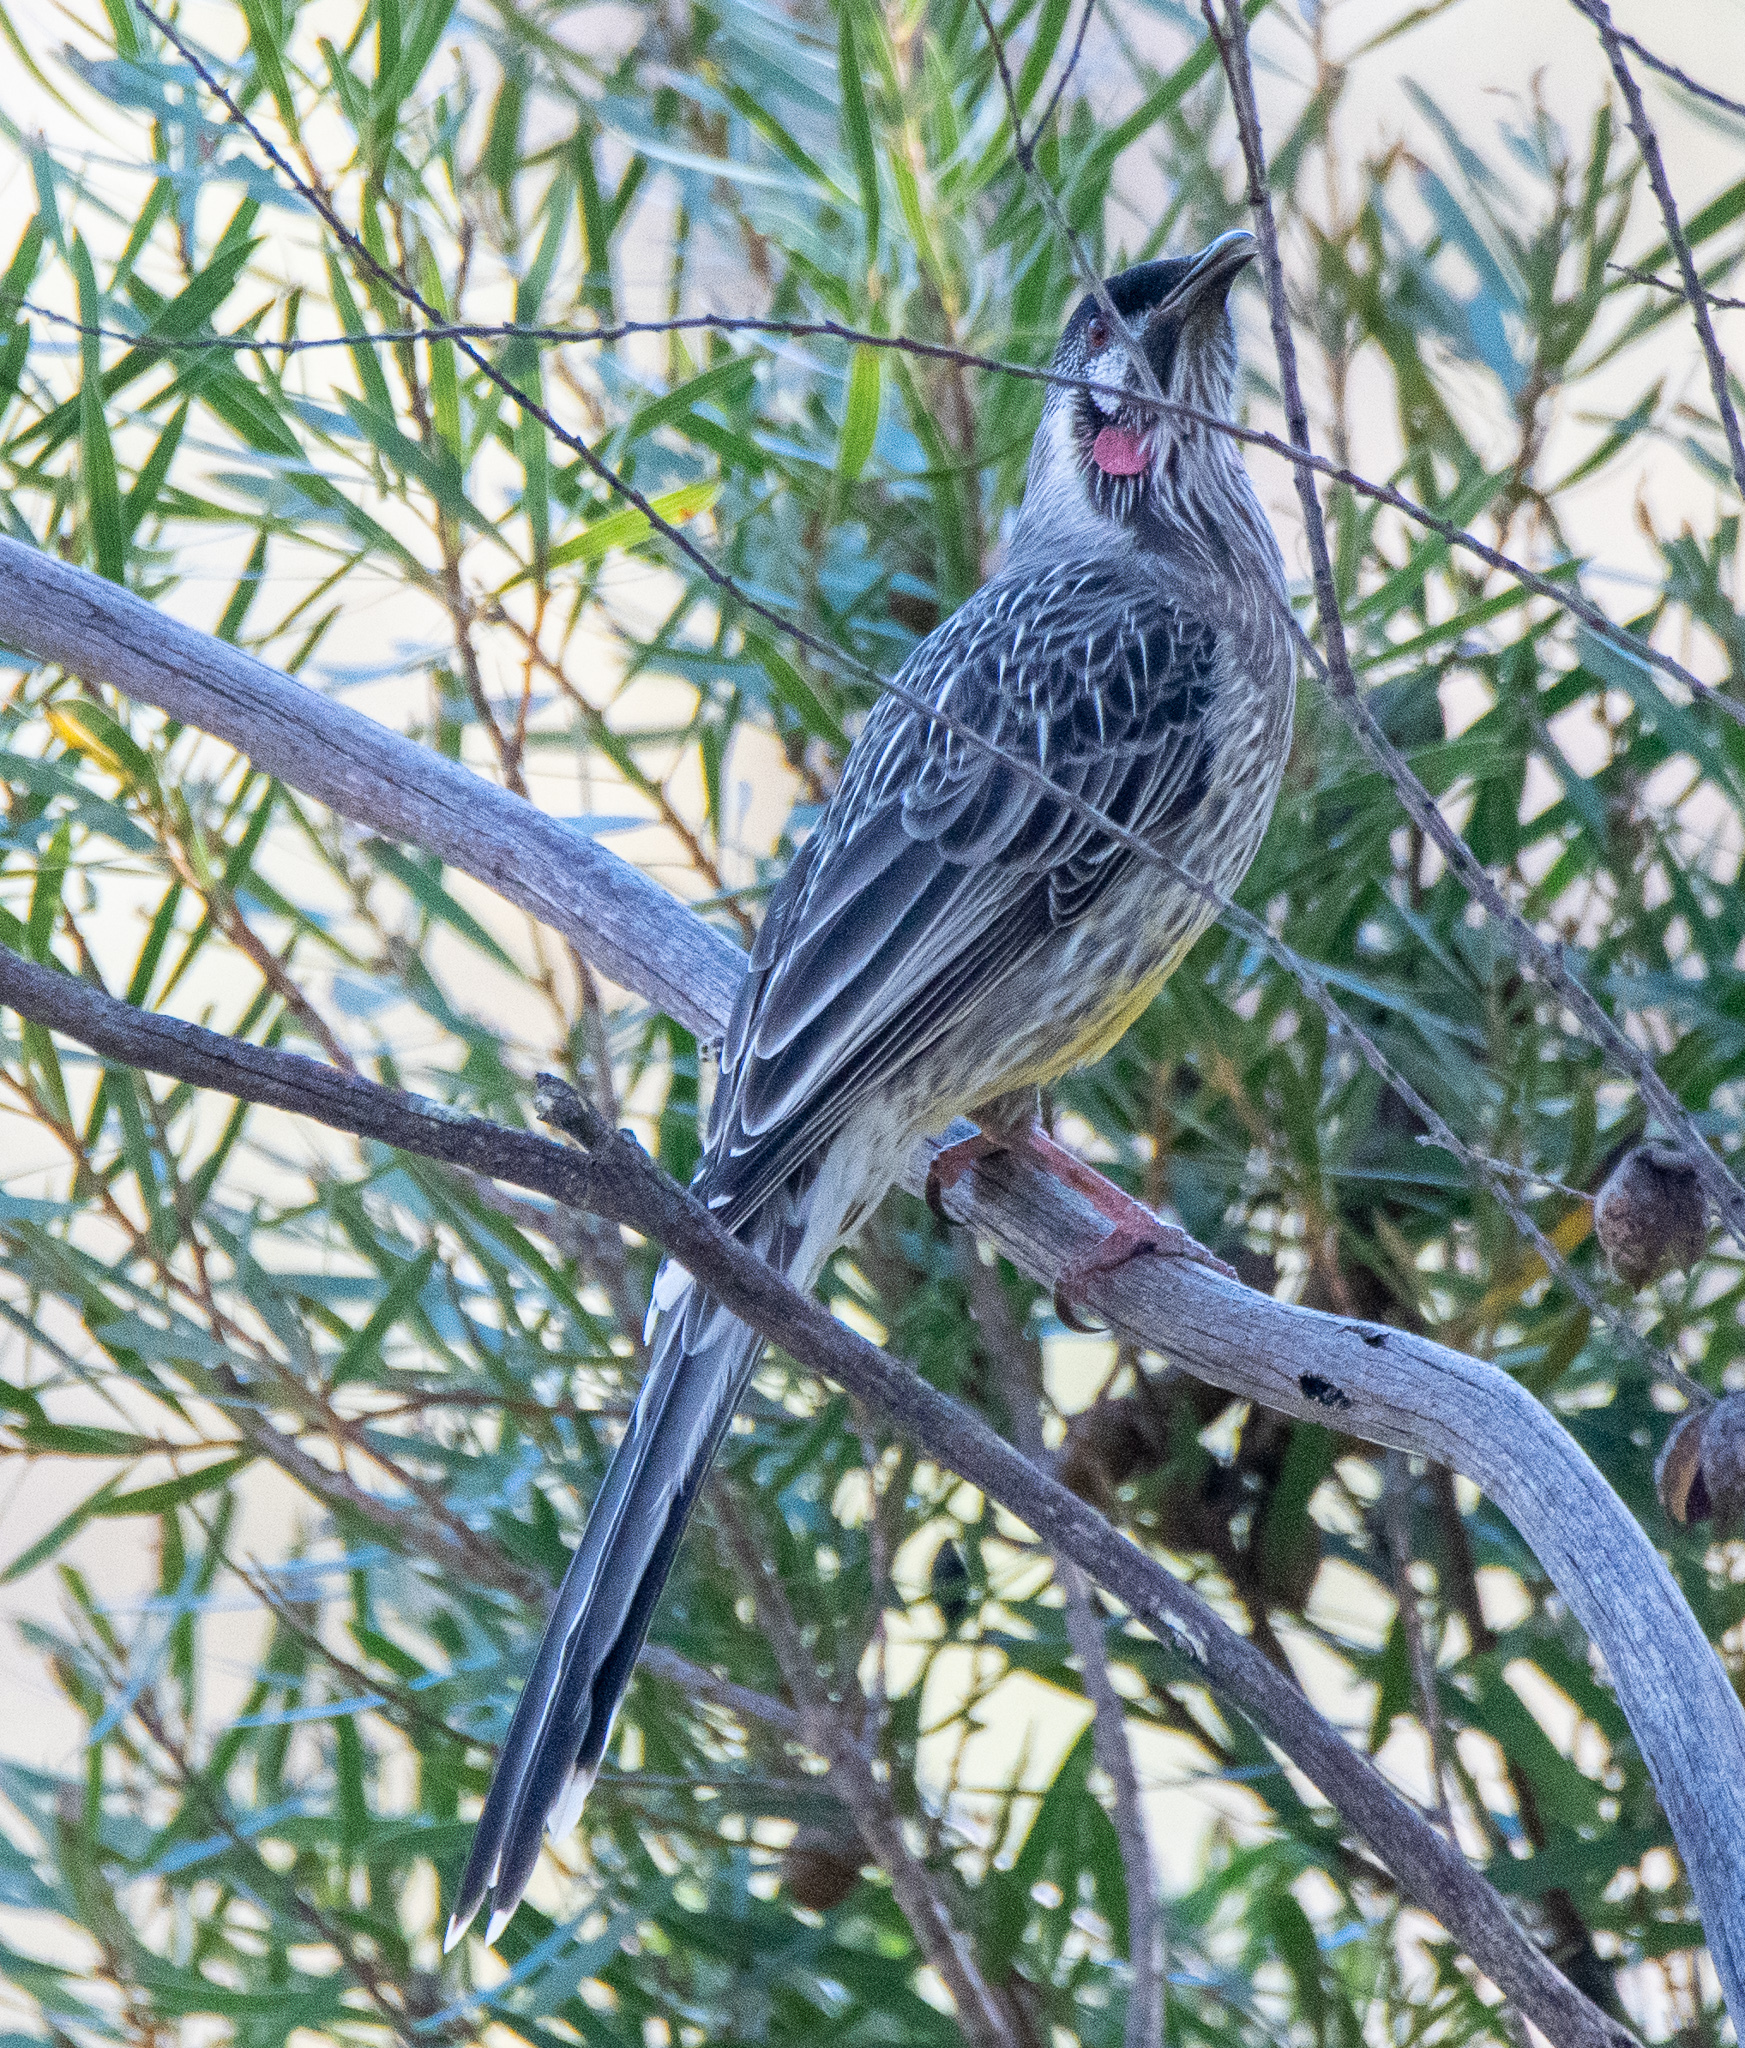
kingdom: Animalia
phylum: Chordata
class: Aves
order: Passeriformes
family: Meliphagidae
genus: Anthochaera
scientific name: Anthochaera carunculata
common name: Red wattlebird
